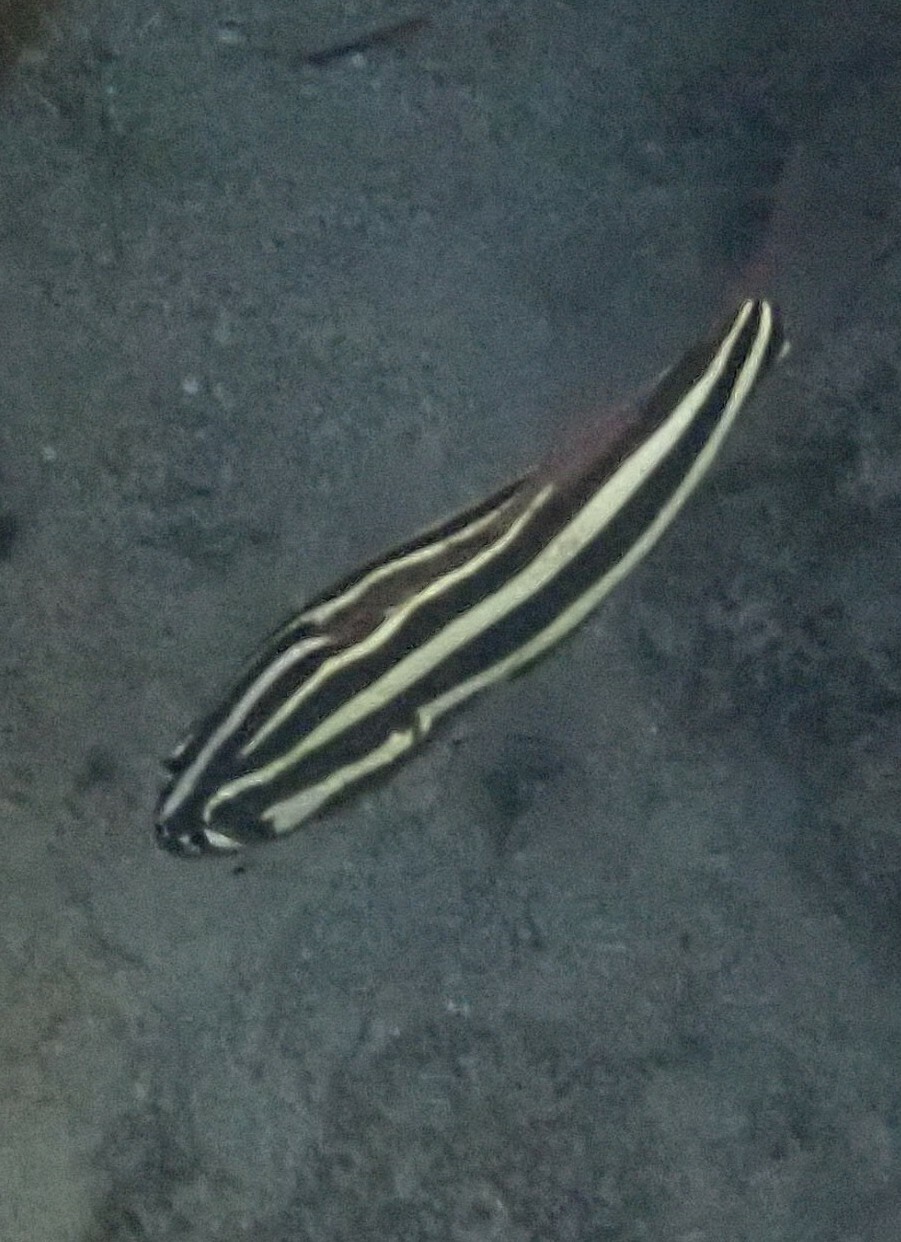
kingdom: Animalia
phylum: Chordata
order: Perciformes
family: Serranidae
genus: Grammistes
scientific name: Grammistes sexlineatus
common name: Sixline soapfish
